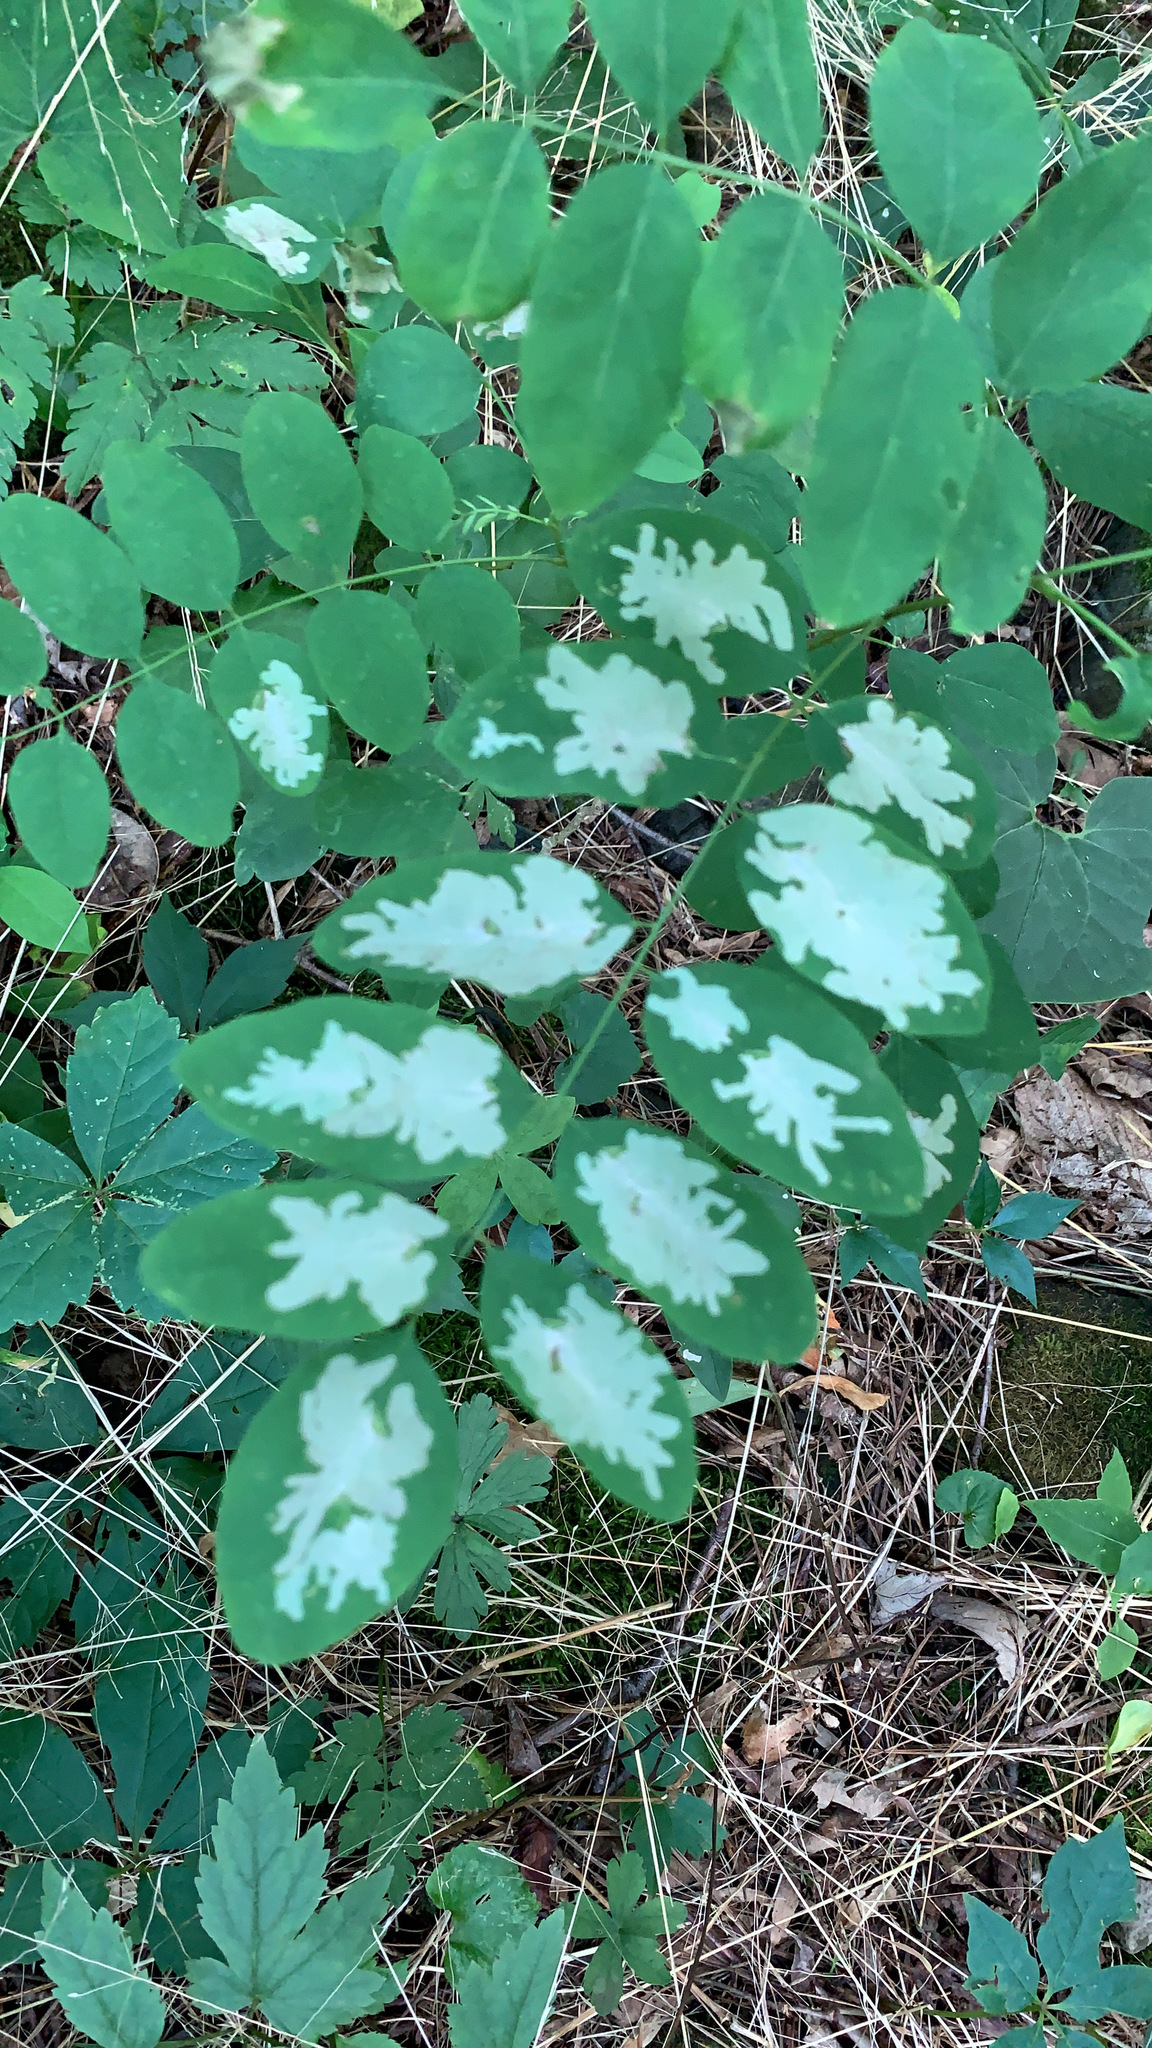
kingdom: Animalia
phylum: Arthropoda
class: Insecta
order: Lepidoptera
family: Gracillariidae
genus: Parectopa
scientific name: Parectopa robiniella
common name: Locust digitate leafminer
